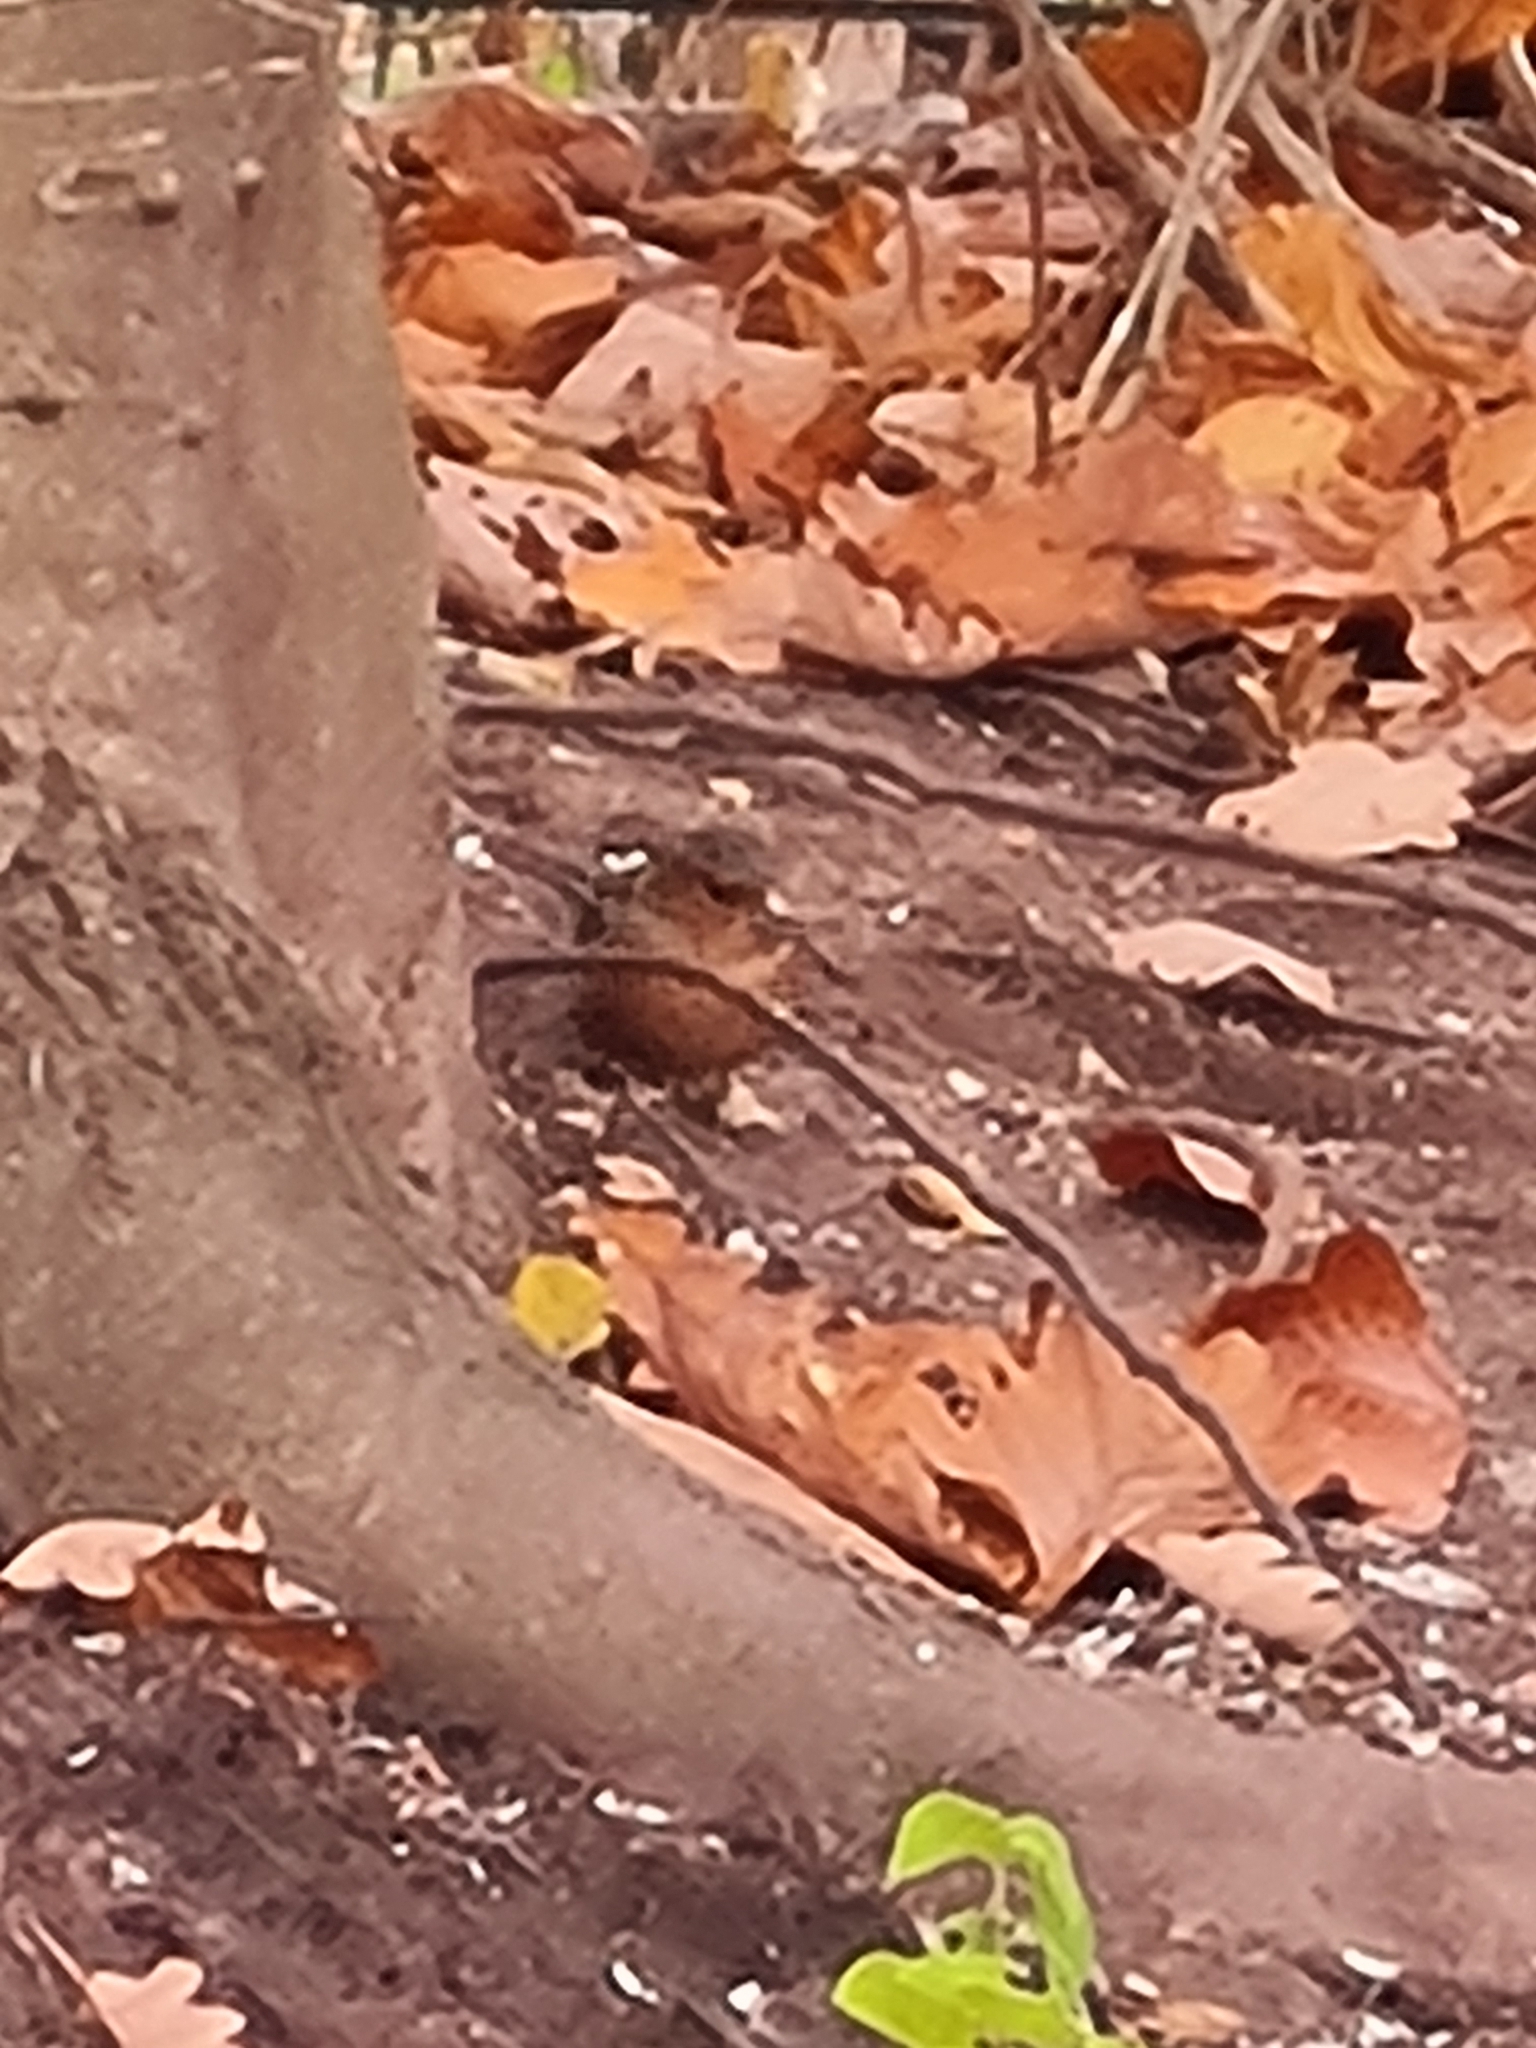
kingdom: Animalia
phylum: Chordata
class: Aves
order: Passeriformes
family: Fringillidae
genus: Fringilla
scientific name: Fringilla coelebs
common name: Common chaffinch
